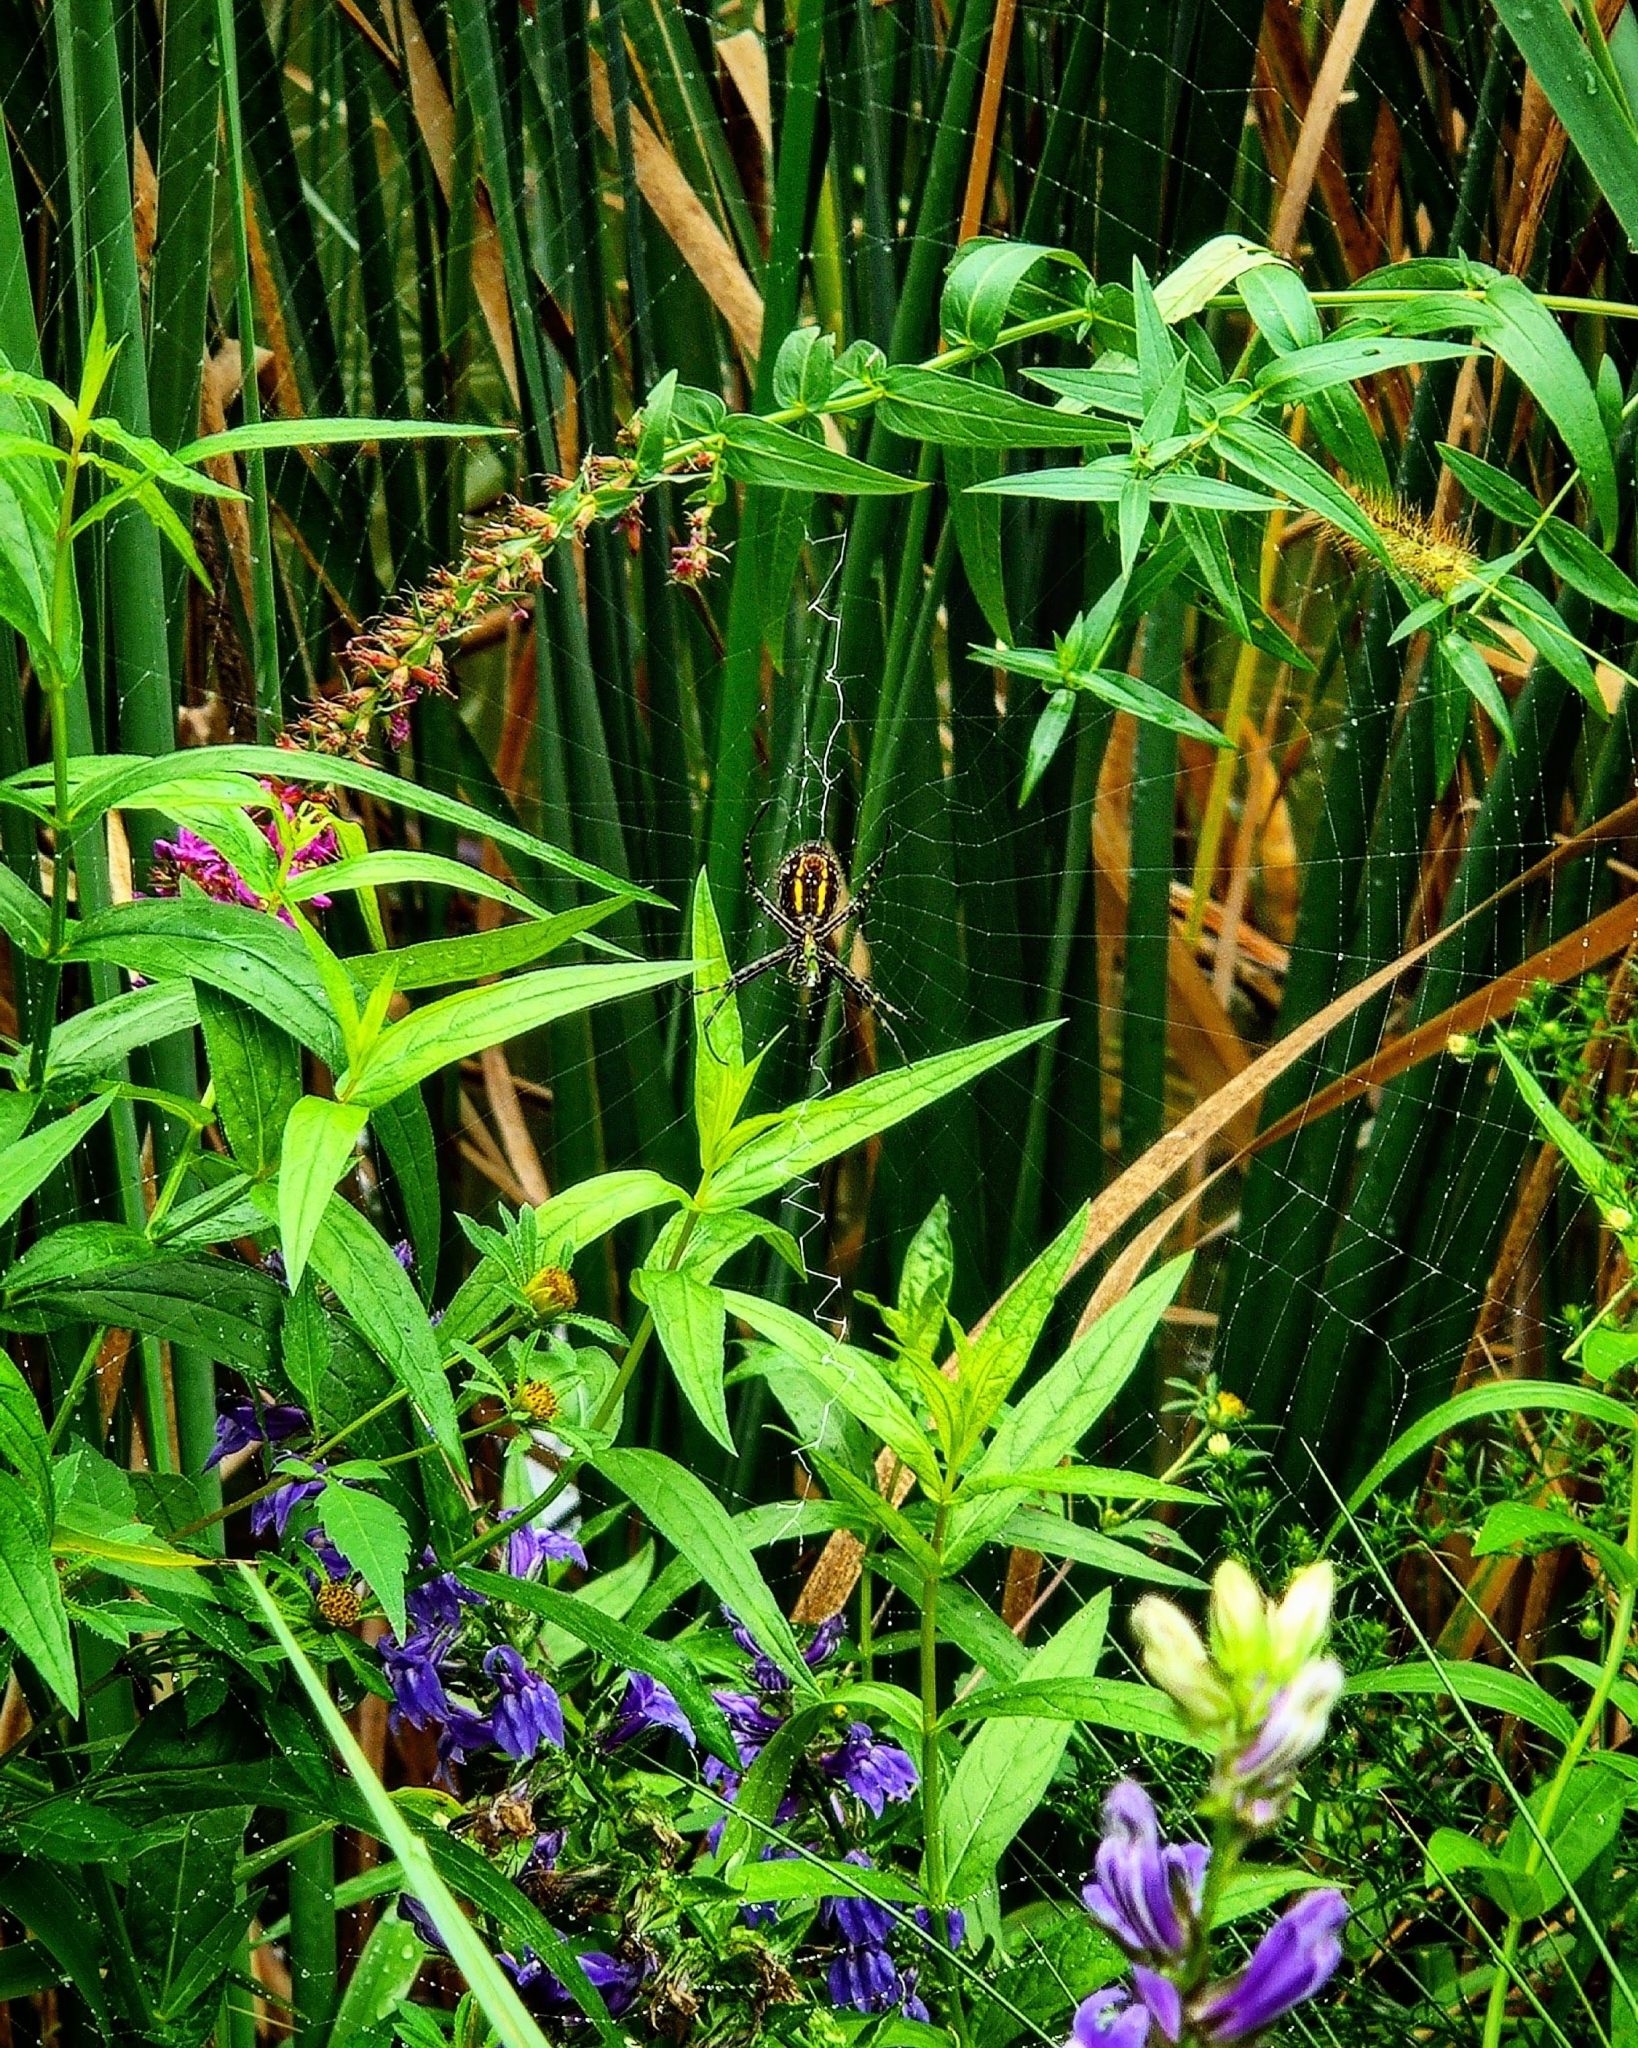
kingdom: Animalia
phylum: Arthropoda
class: Arachnida
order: Araneae
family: Araneidae
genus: Argiope
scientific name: Argiope aurantia
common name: Orb weavers
